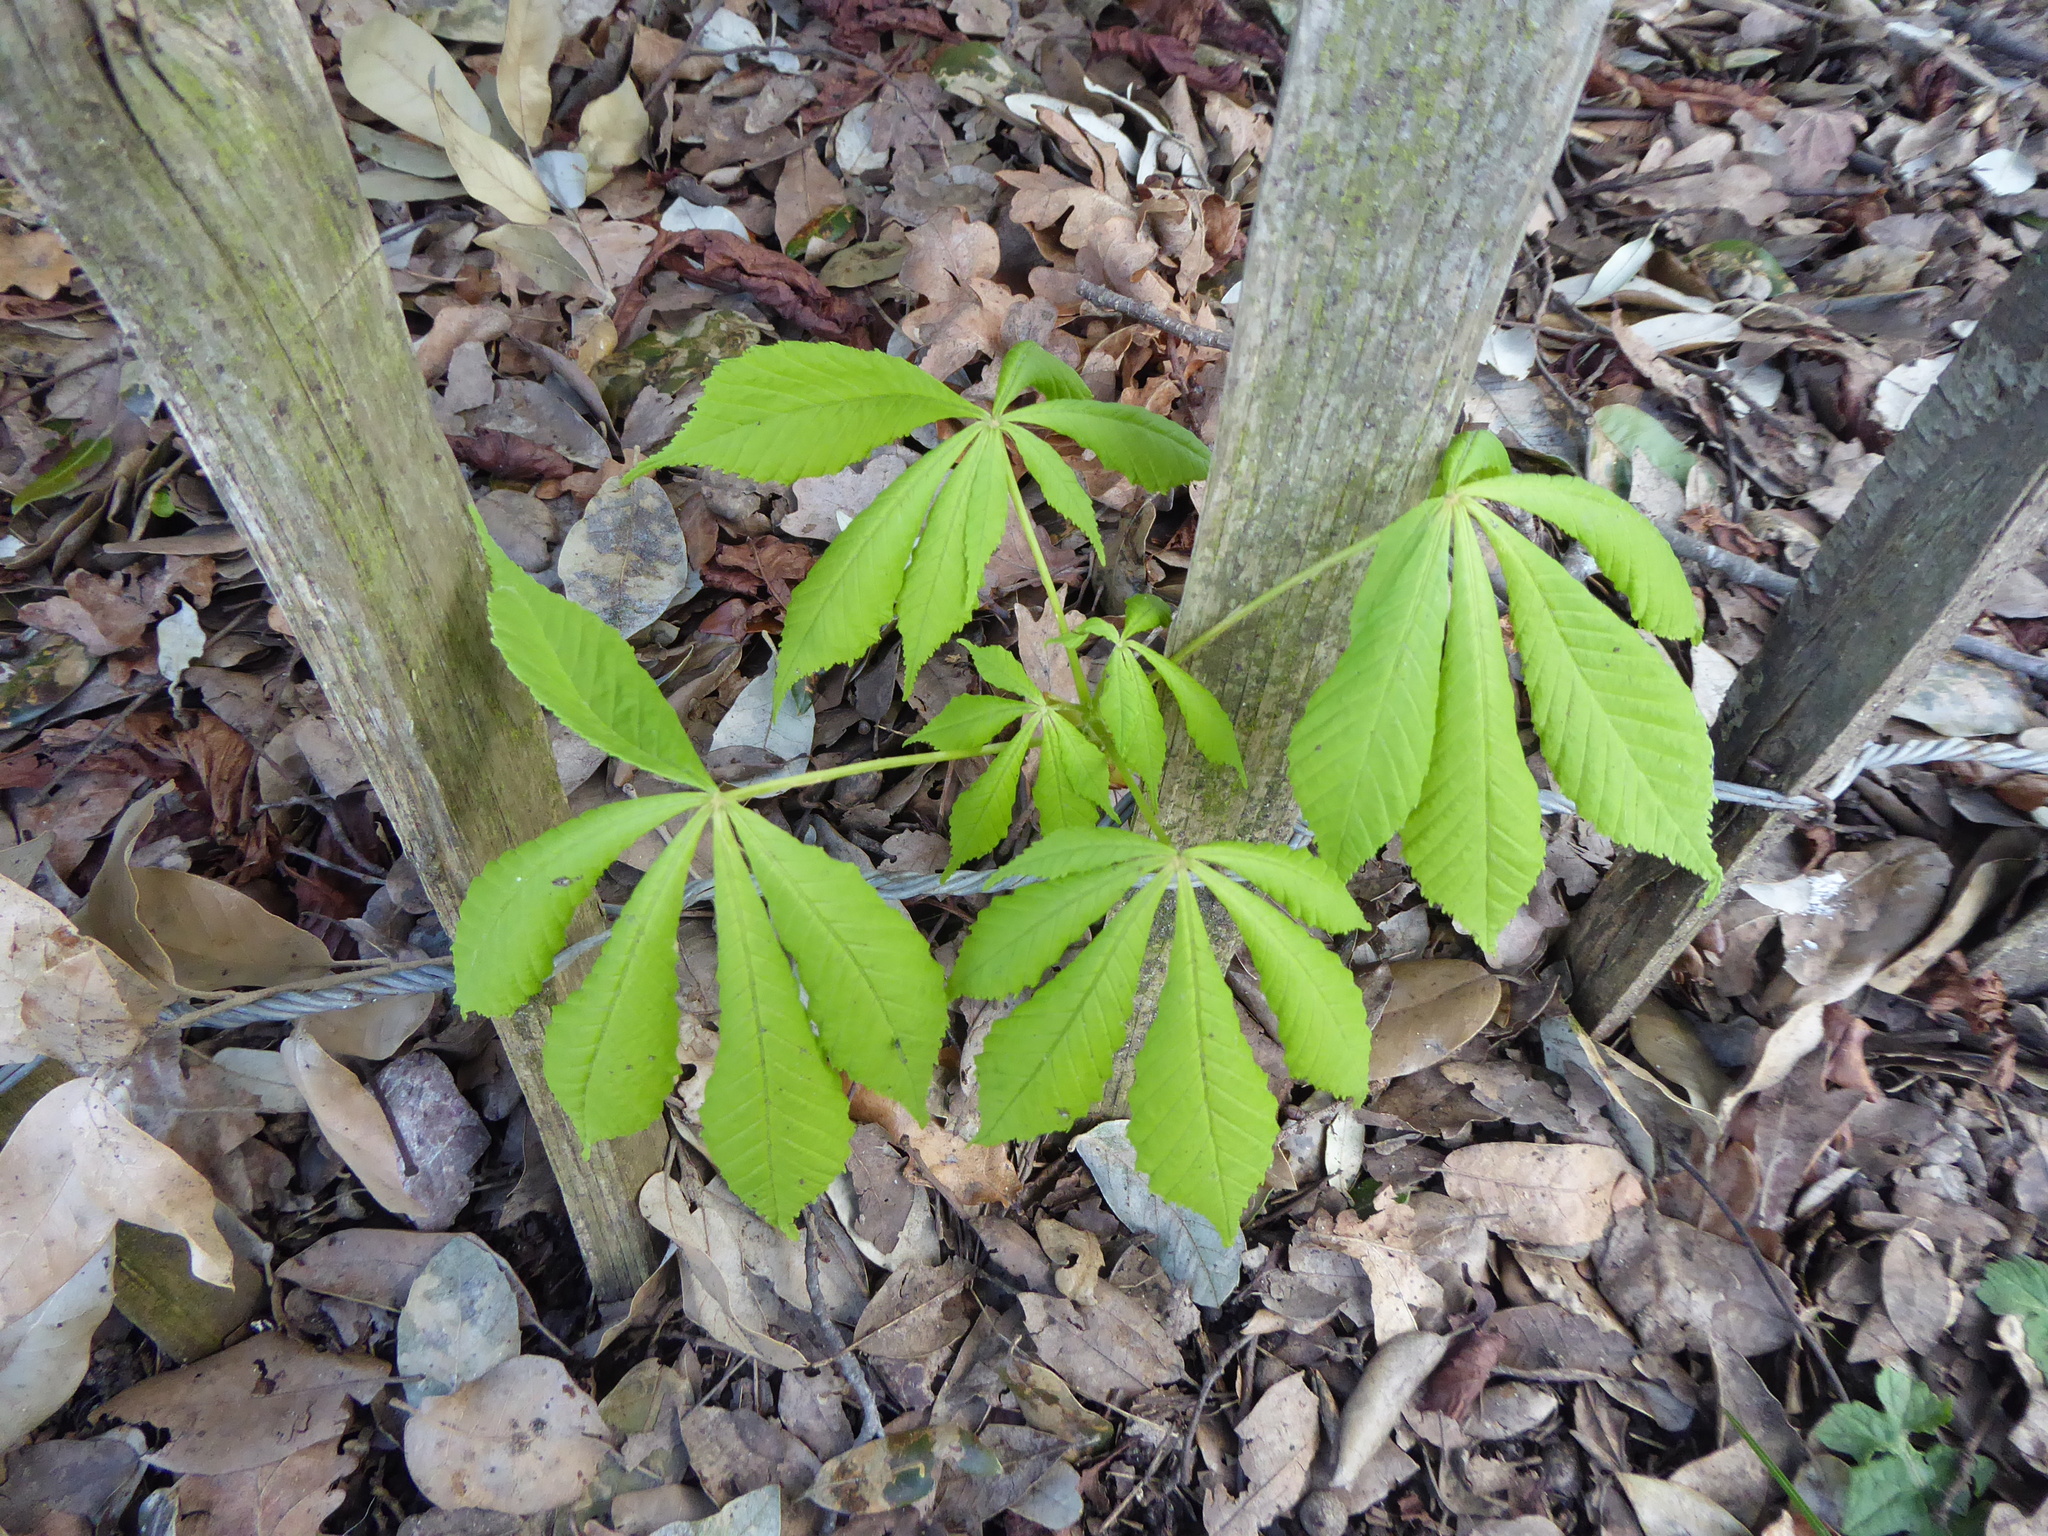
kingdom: Plantae
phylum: Tracheophyta
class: Magnoliopsida
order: Sapindales
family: Sapindaceae
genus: Aesculus
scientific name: Aesculus hippocastanum
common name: Horse-chestnut
